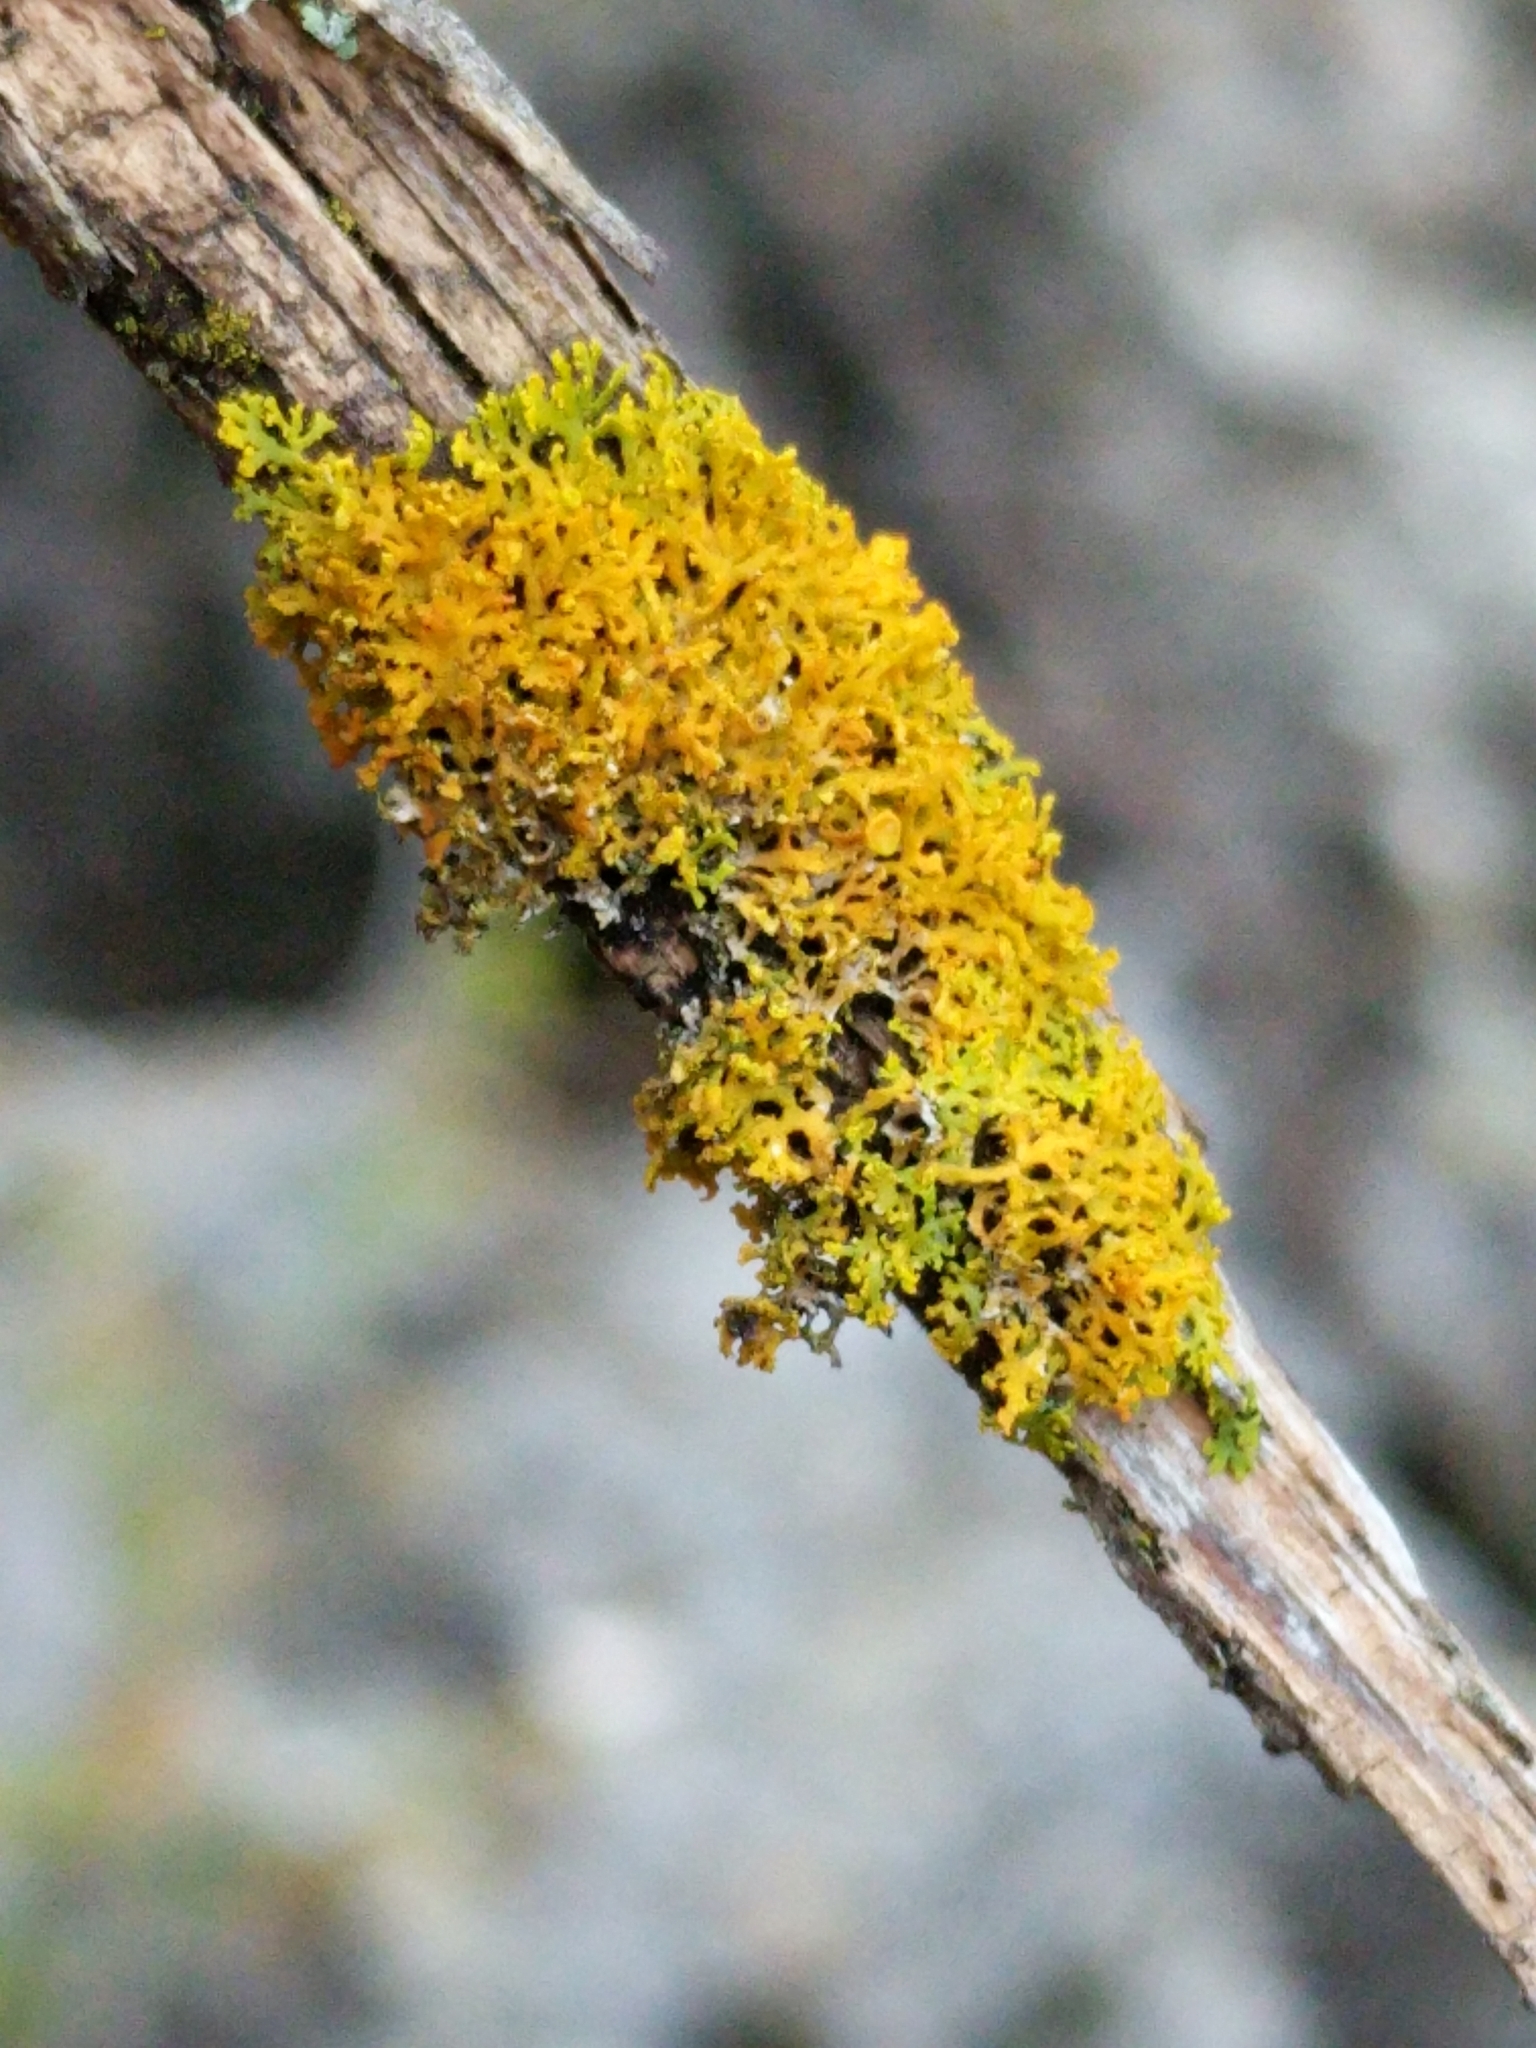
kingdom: Fungi
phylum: Ascomycota
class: Lecanoromycetes
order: Teloschistales
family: Teloschistaceae
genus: Gallowayella
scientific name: Gallowayella weberi
